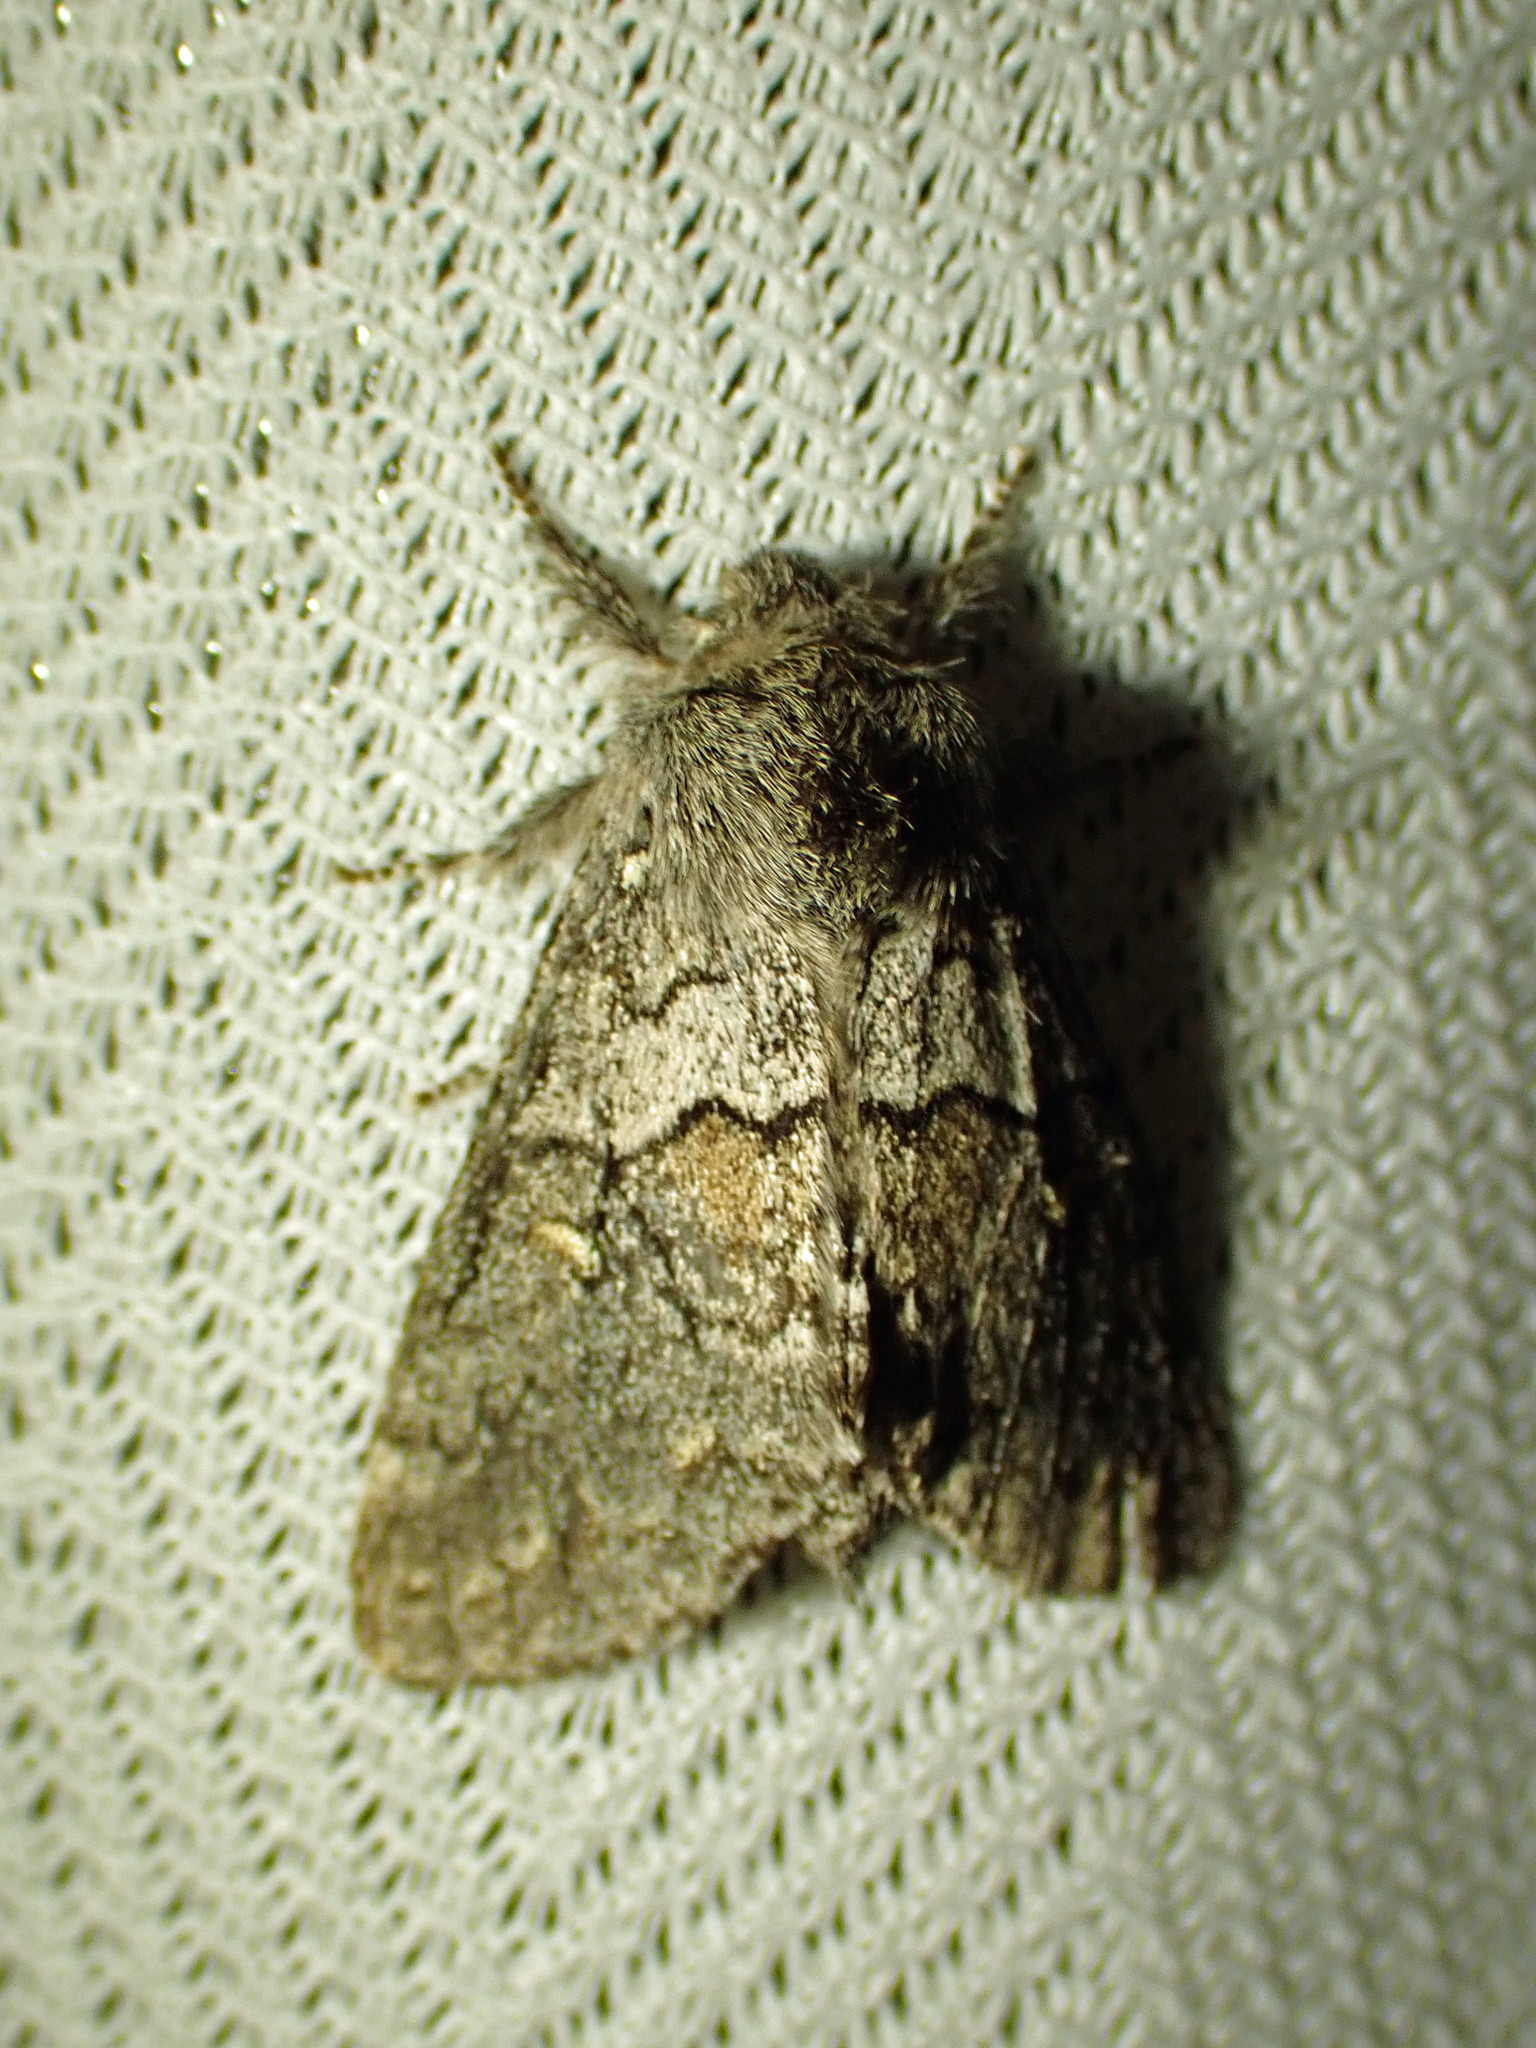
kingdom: Animalia
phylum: Arthropoda
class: Insecta
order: Lepidoptera
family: Notodontidae
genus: Gluphisia
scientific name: Gluphisia avimacula
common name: Four-spotted gluphisia moth
